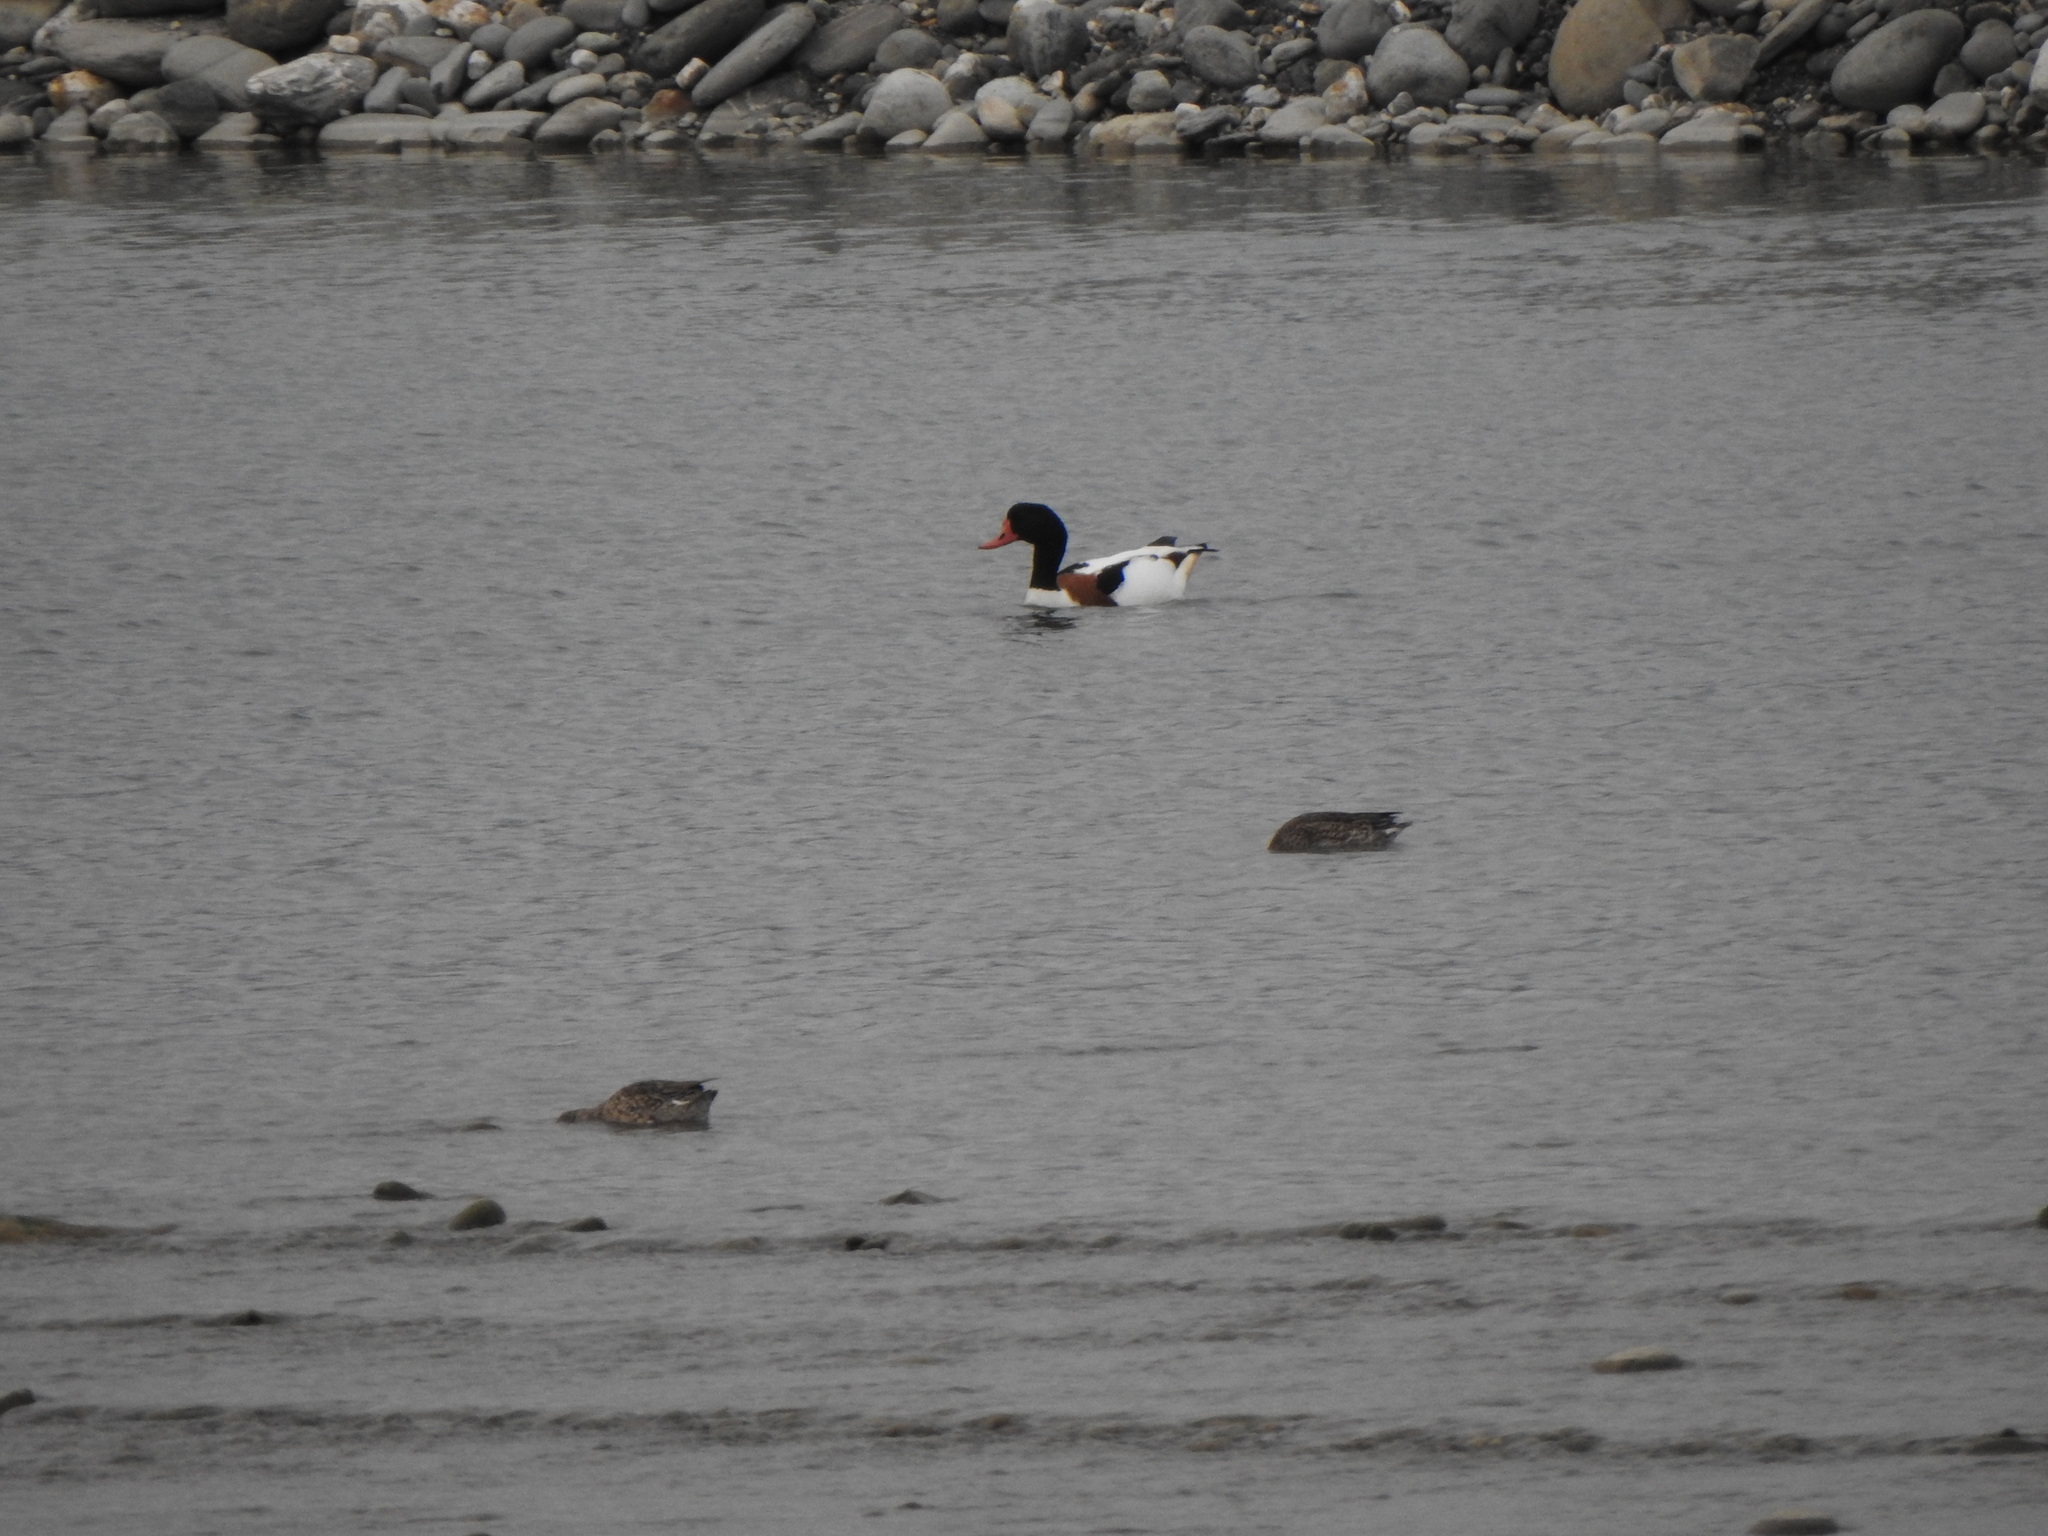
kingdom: Animalia
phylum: Chordata
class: Aves
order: Anseriformes
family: Anatidae
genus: Tadorna
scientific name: Tadorna tadorna
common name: Common shelduck
